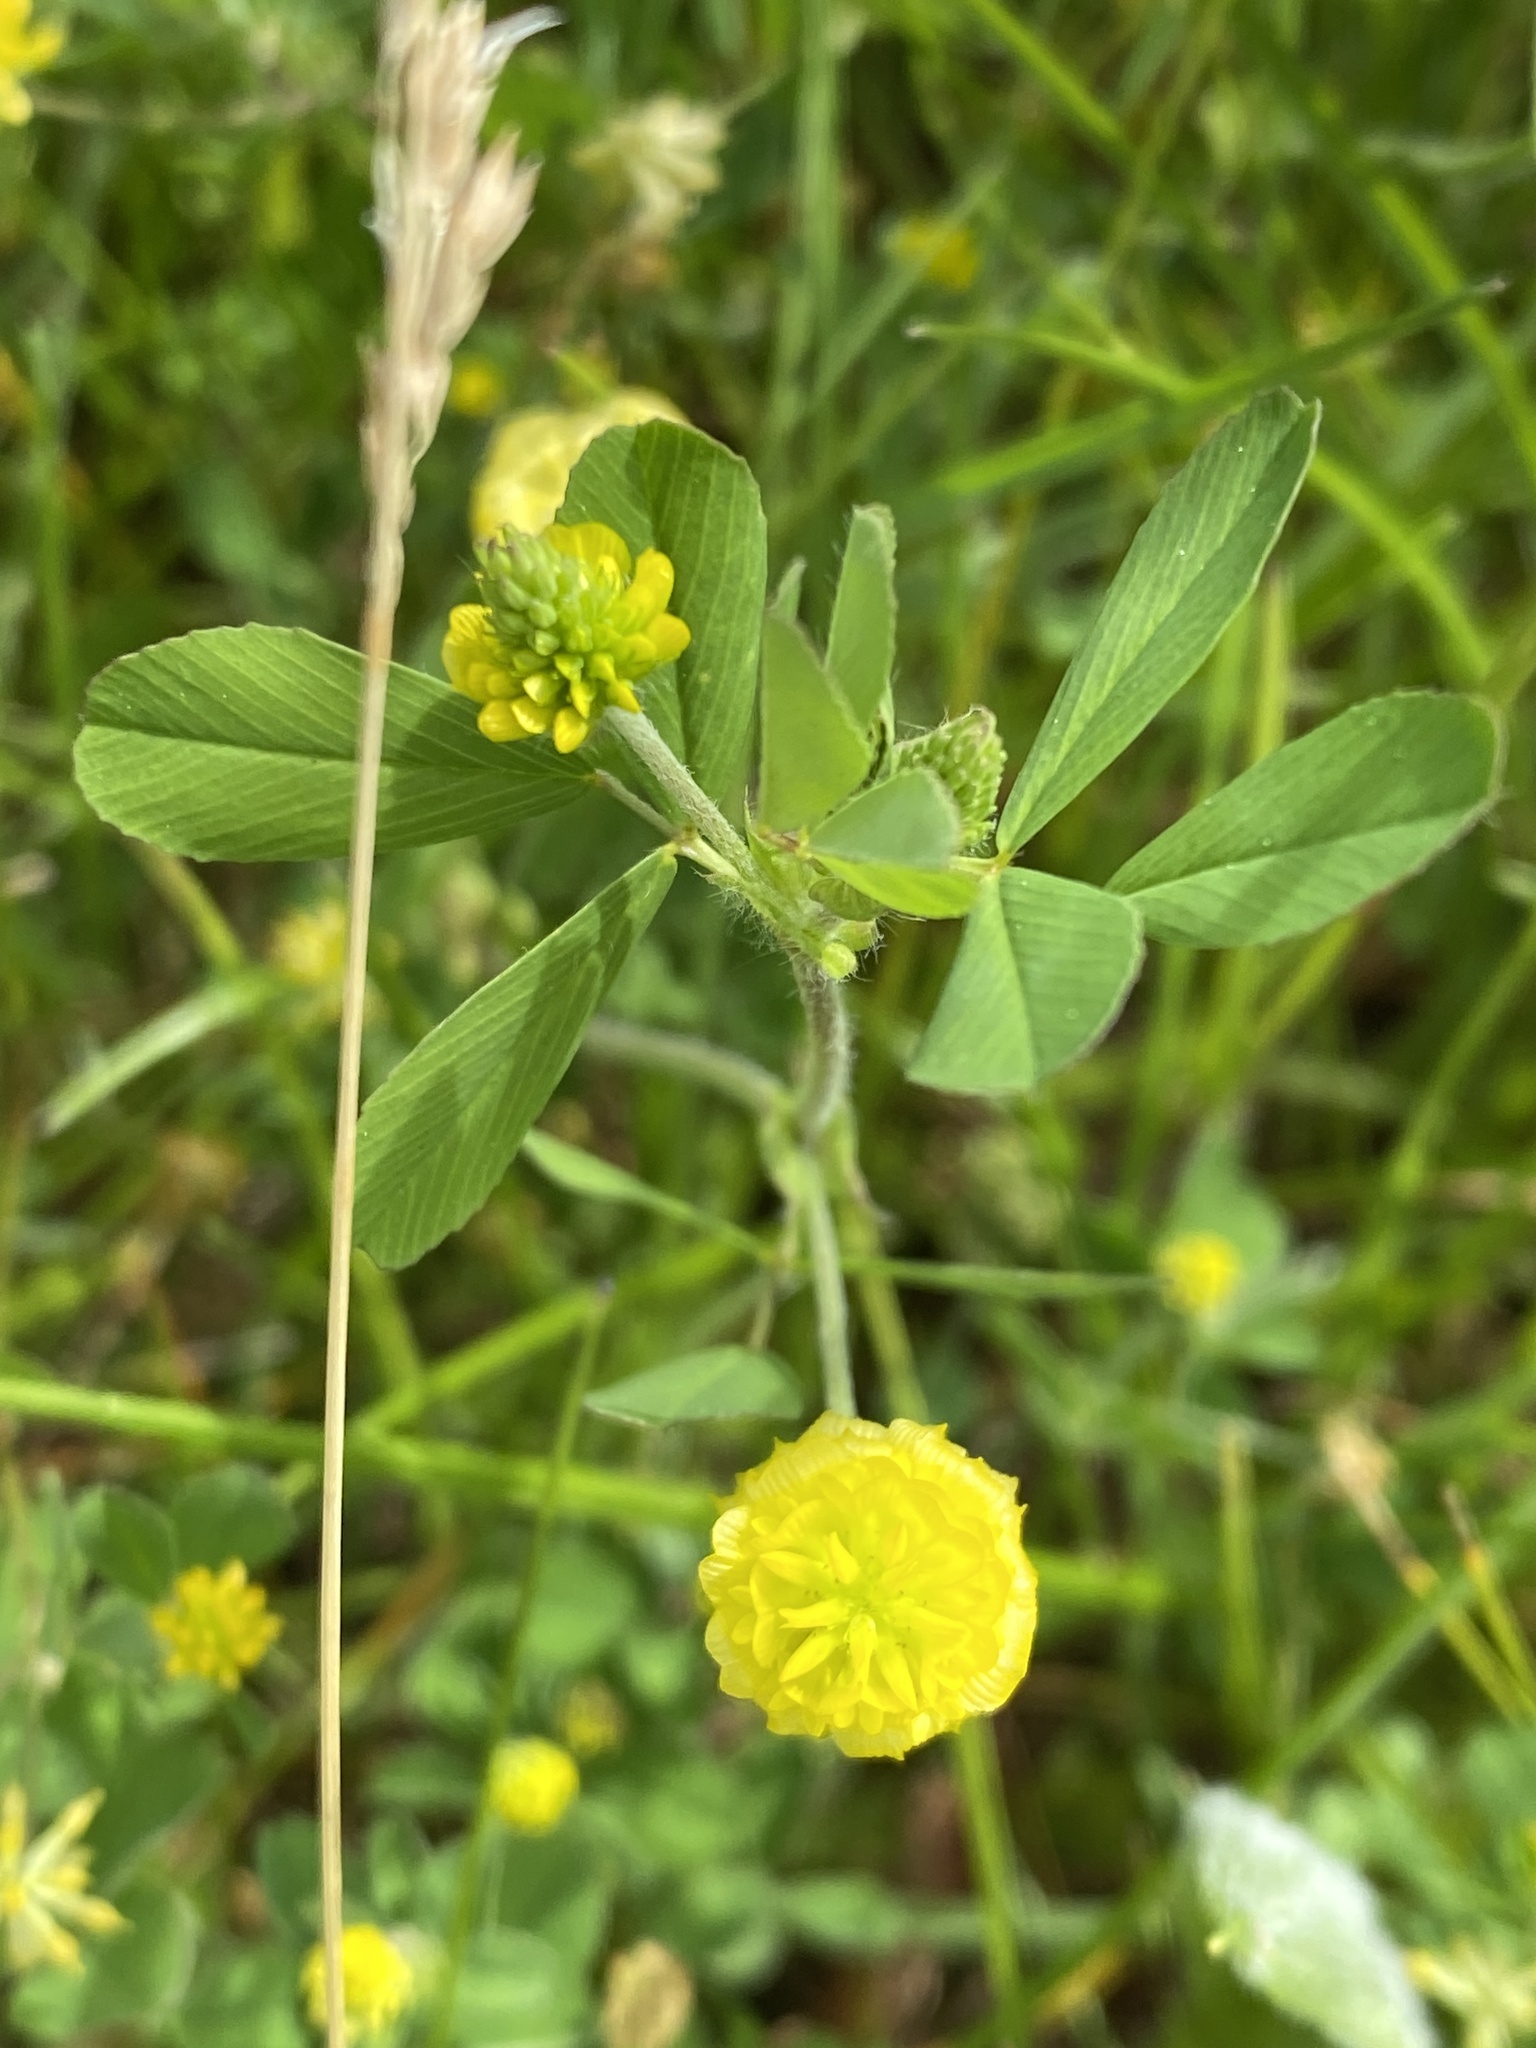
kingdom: Plantae
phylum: Tracheophyta
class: Magnoliopsida
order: Fabales
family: Fabaceae
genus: Trifolium
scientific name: Trifolium campestre
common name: Field clover
